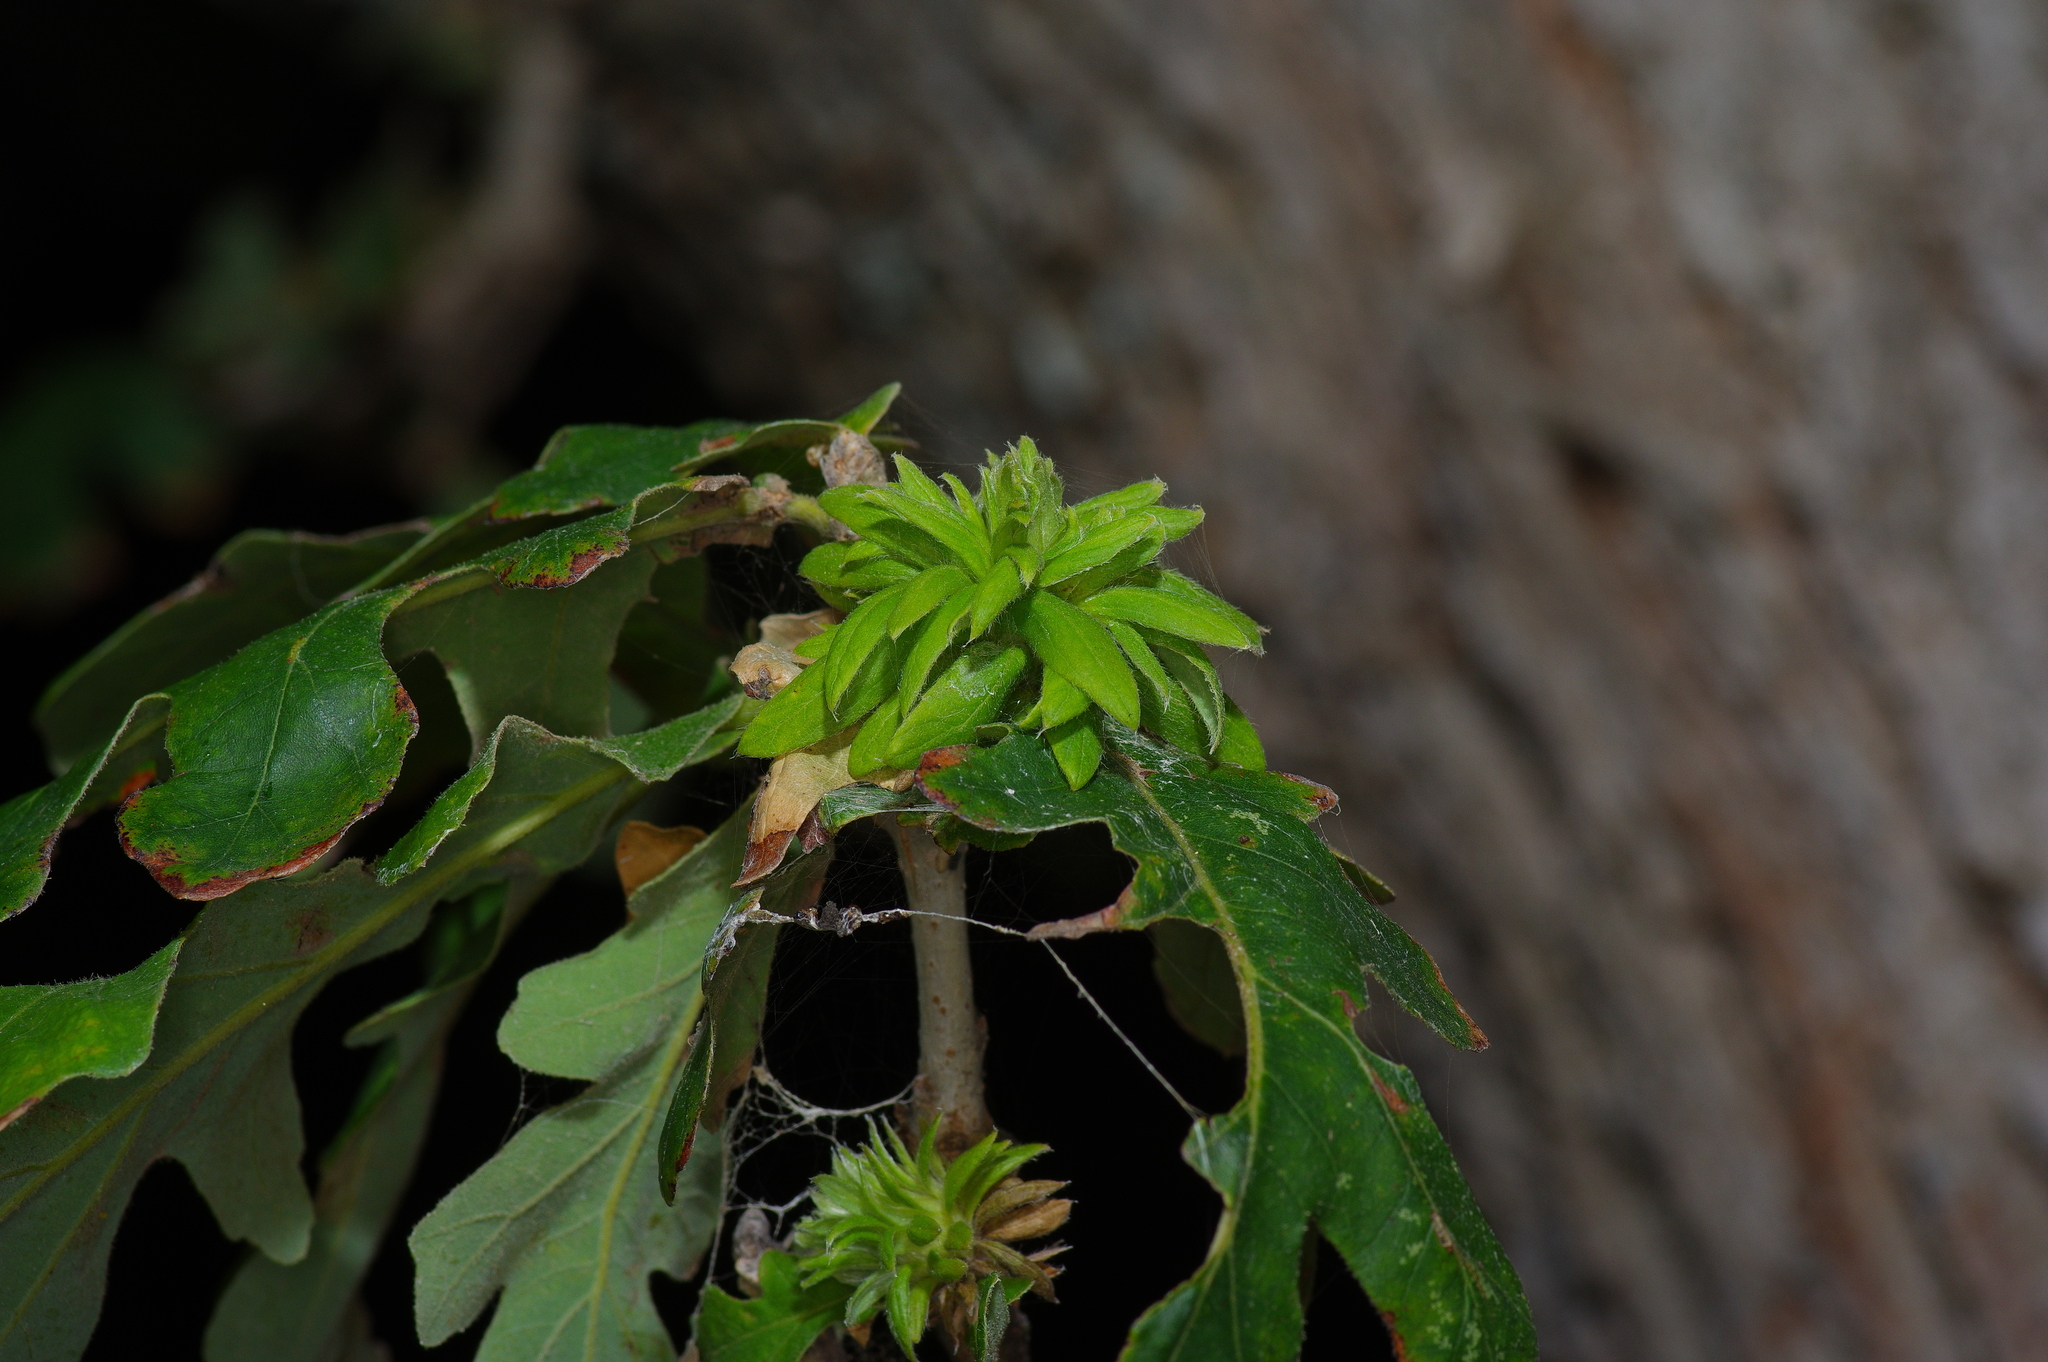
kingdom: Animalia
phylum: Arthropoda
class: Insecta
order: Hymenoptera
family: Cynipidae
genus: Andricus
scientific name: Andricus
